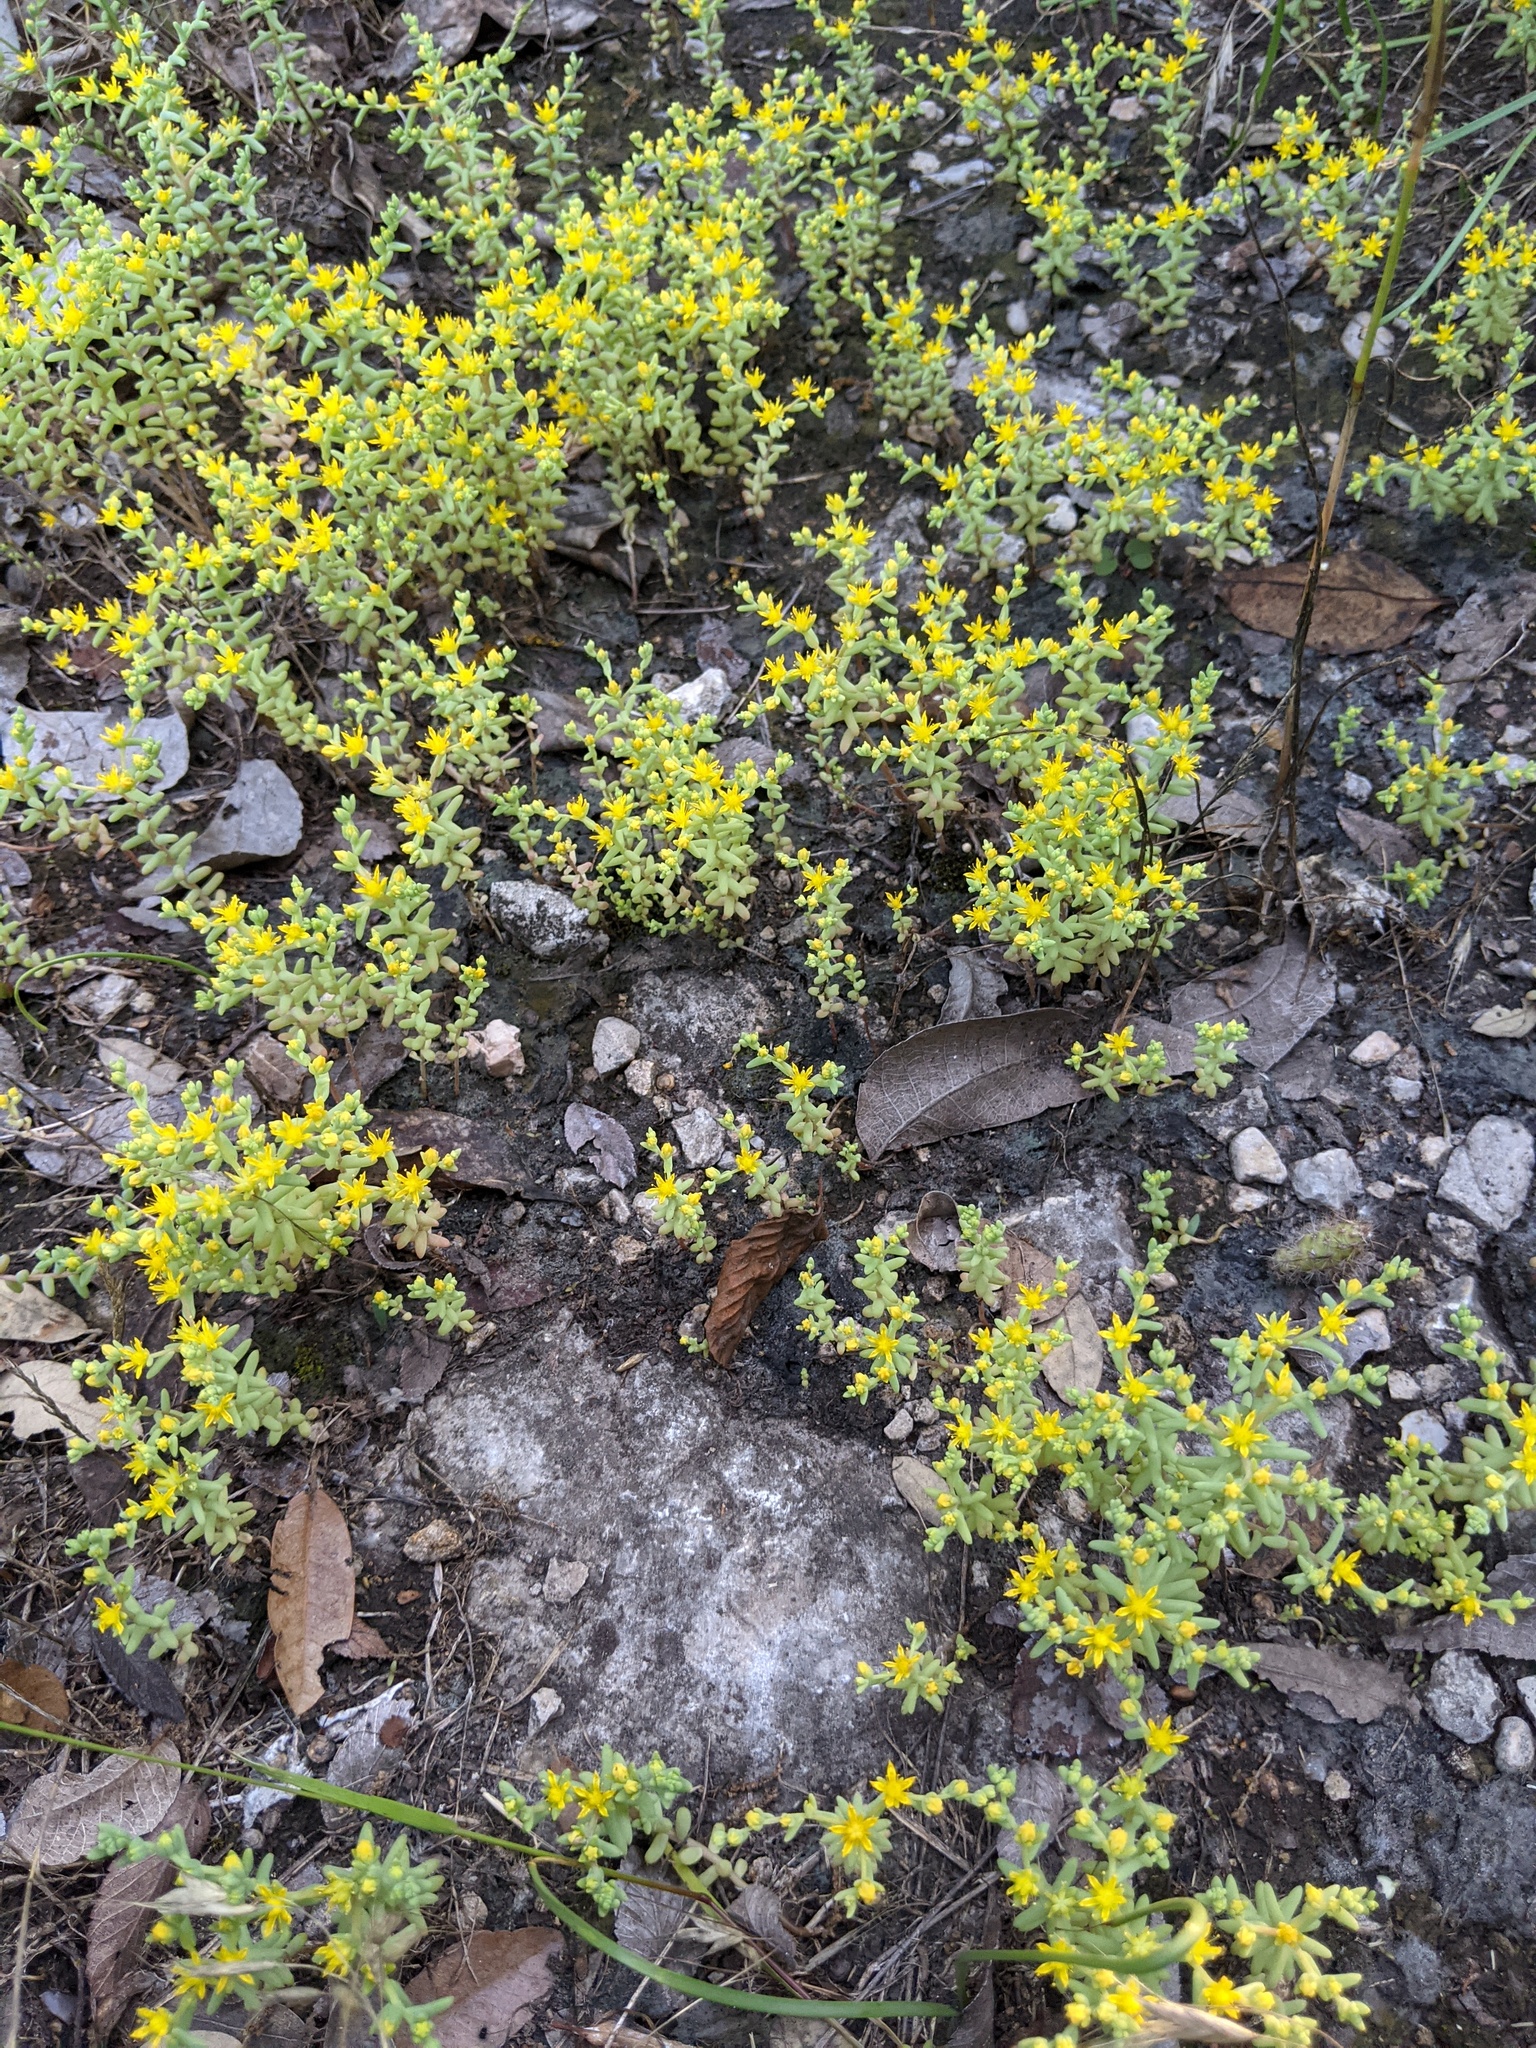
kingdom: Plantae
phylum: Tracheophyta
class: Magnoliopsida
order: Saxifragales
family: Crassulaceae
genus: Sedum
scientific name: Sedum nuttallii
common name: Yellow stonecrop
